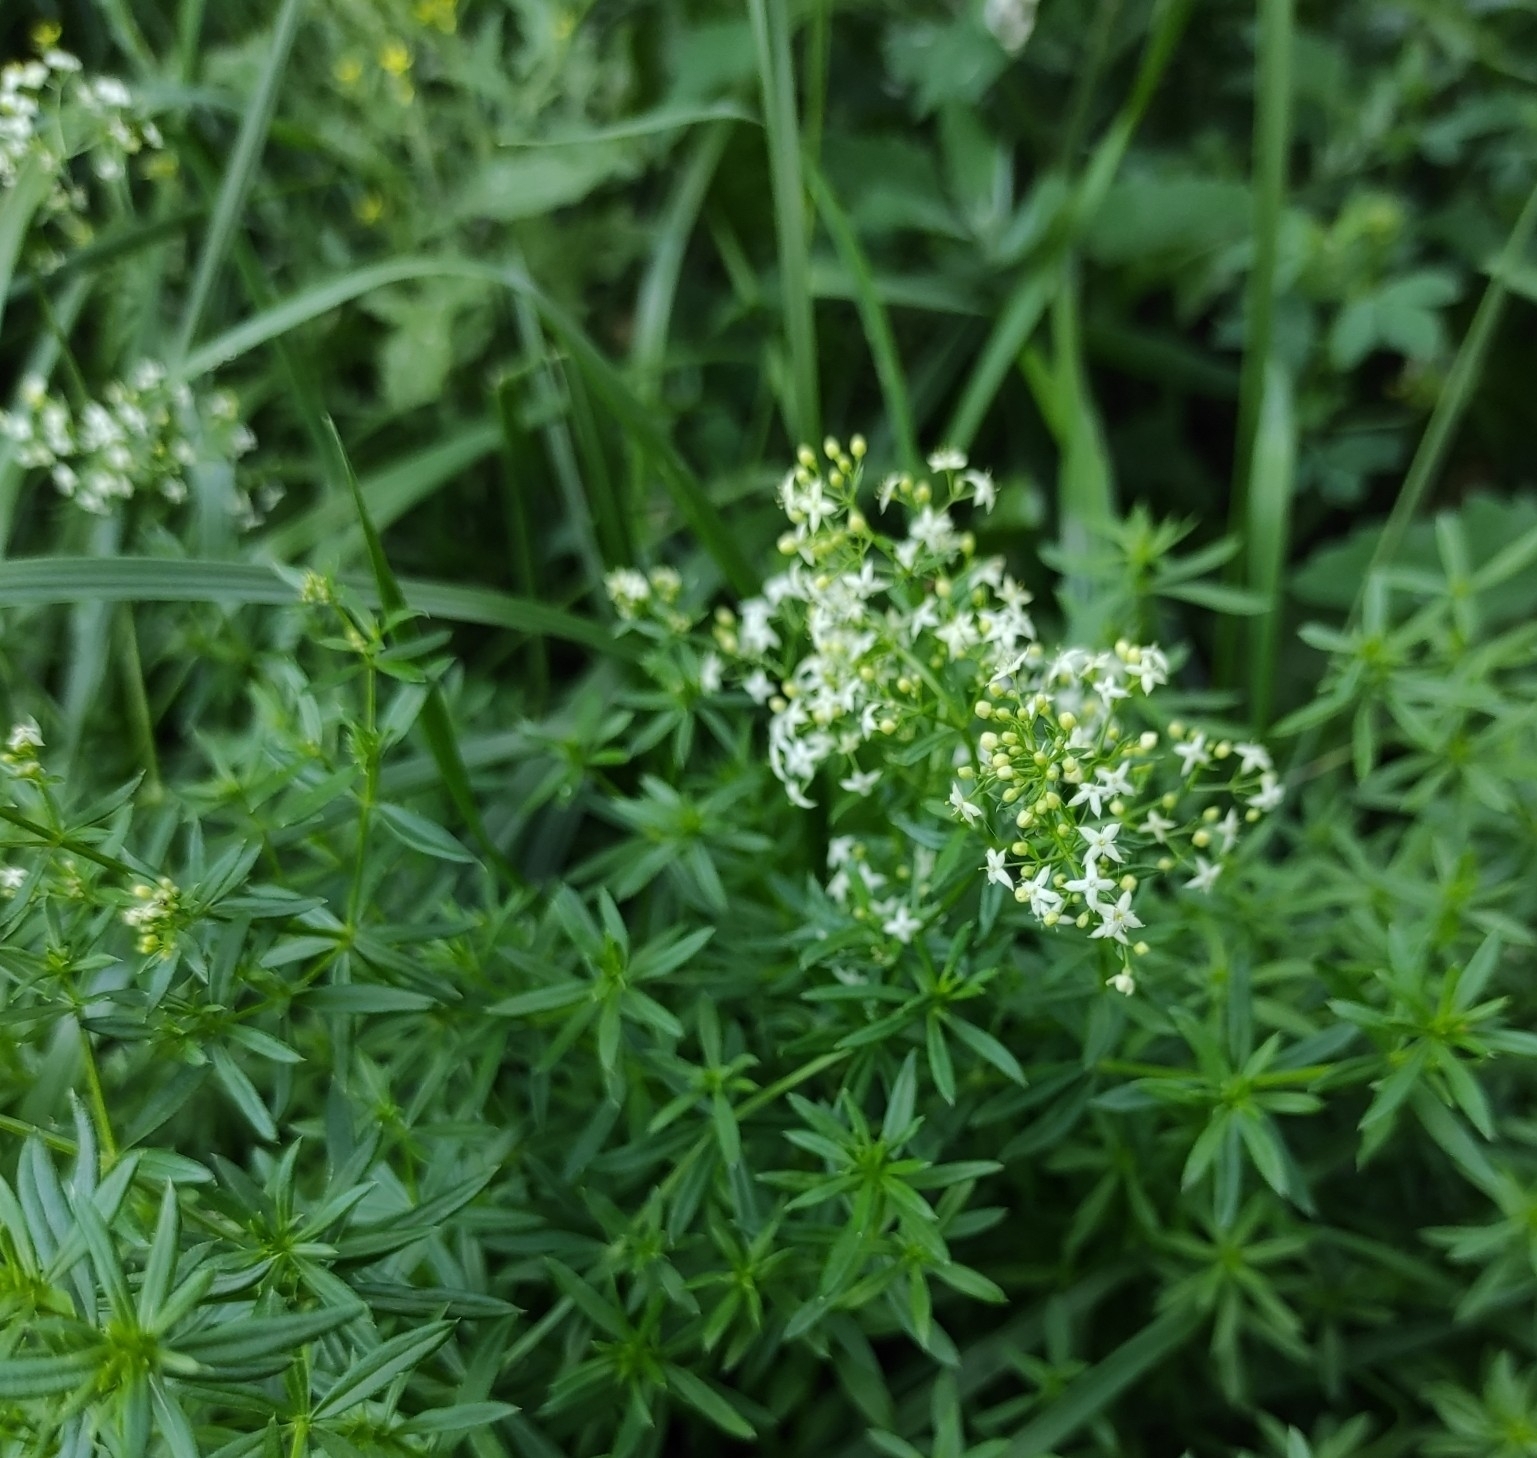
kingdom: Plantae
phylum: Tracheophyta
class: Magnoliopsida
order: Gentianales
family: Rubiaceae
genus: Galium
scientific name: Galium mollugo
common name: Hedge bedstraw
